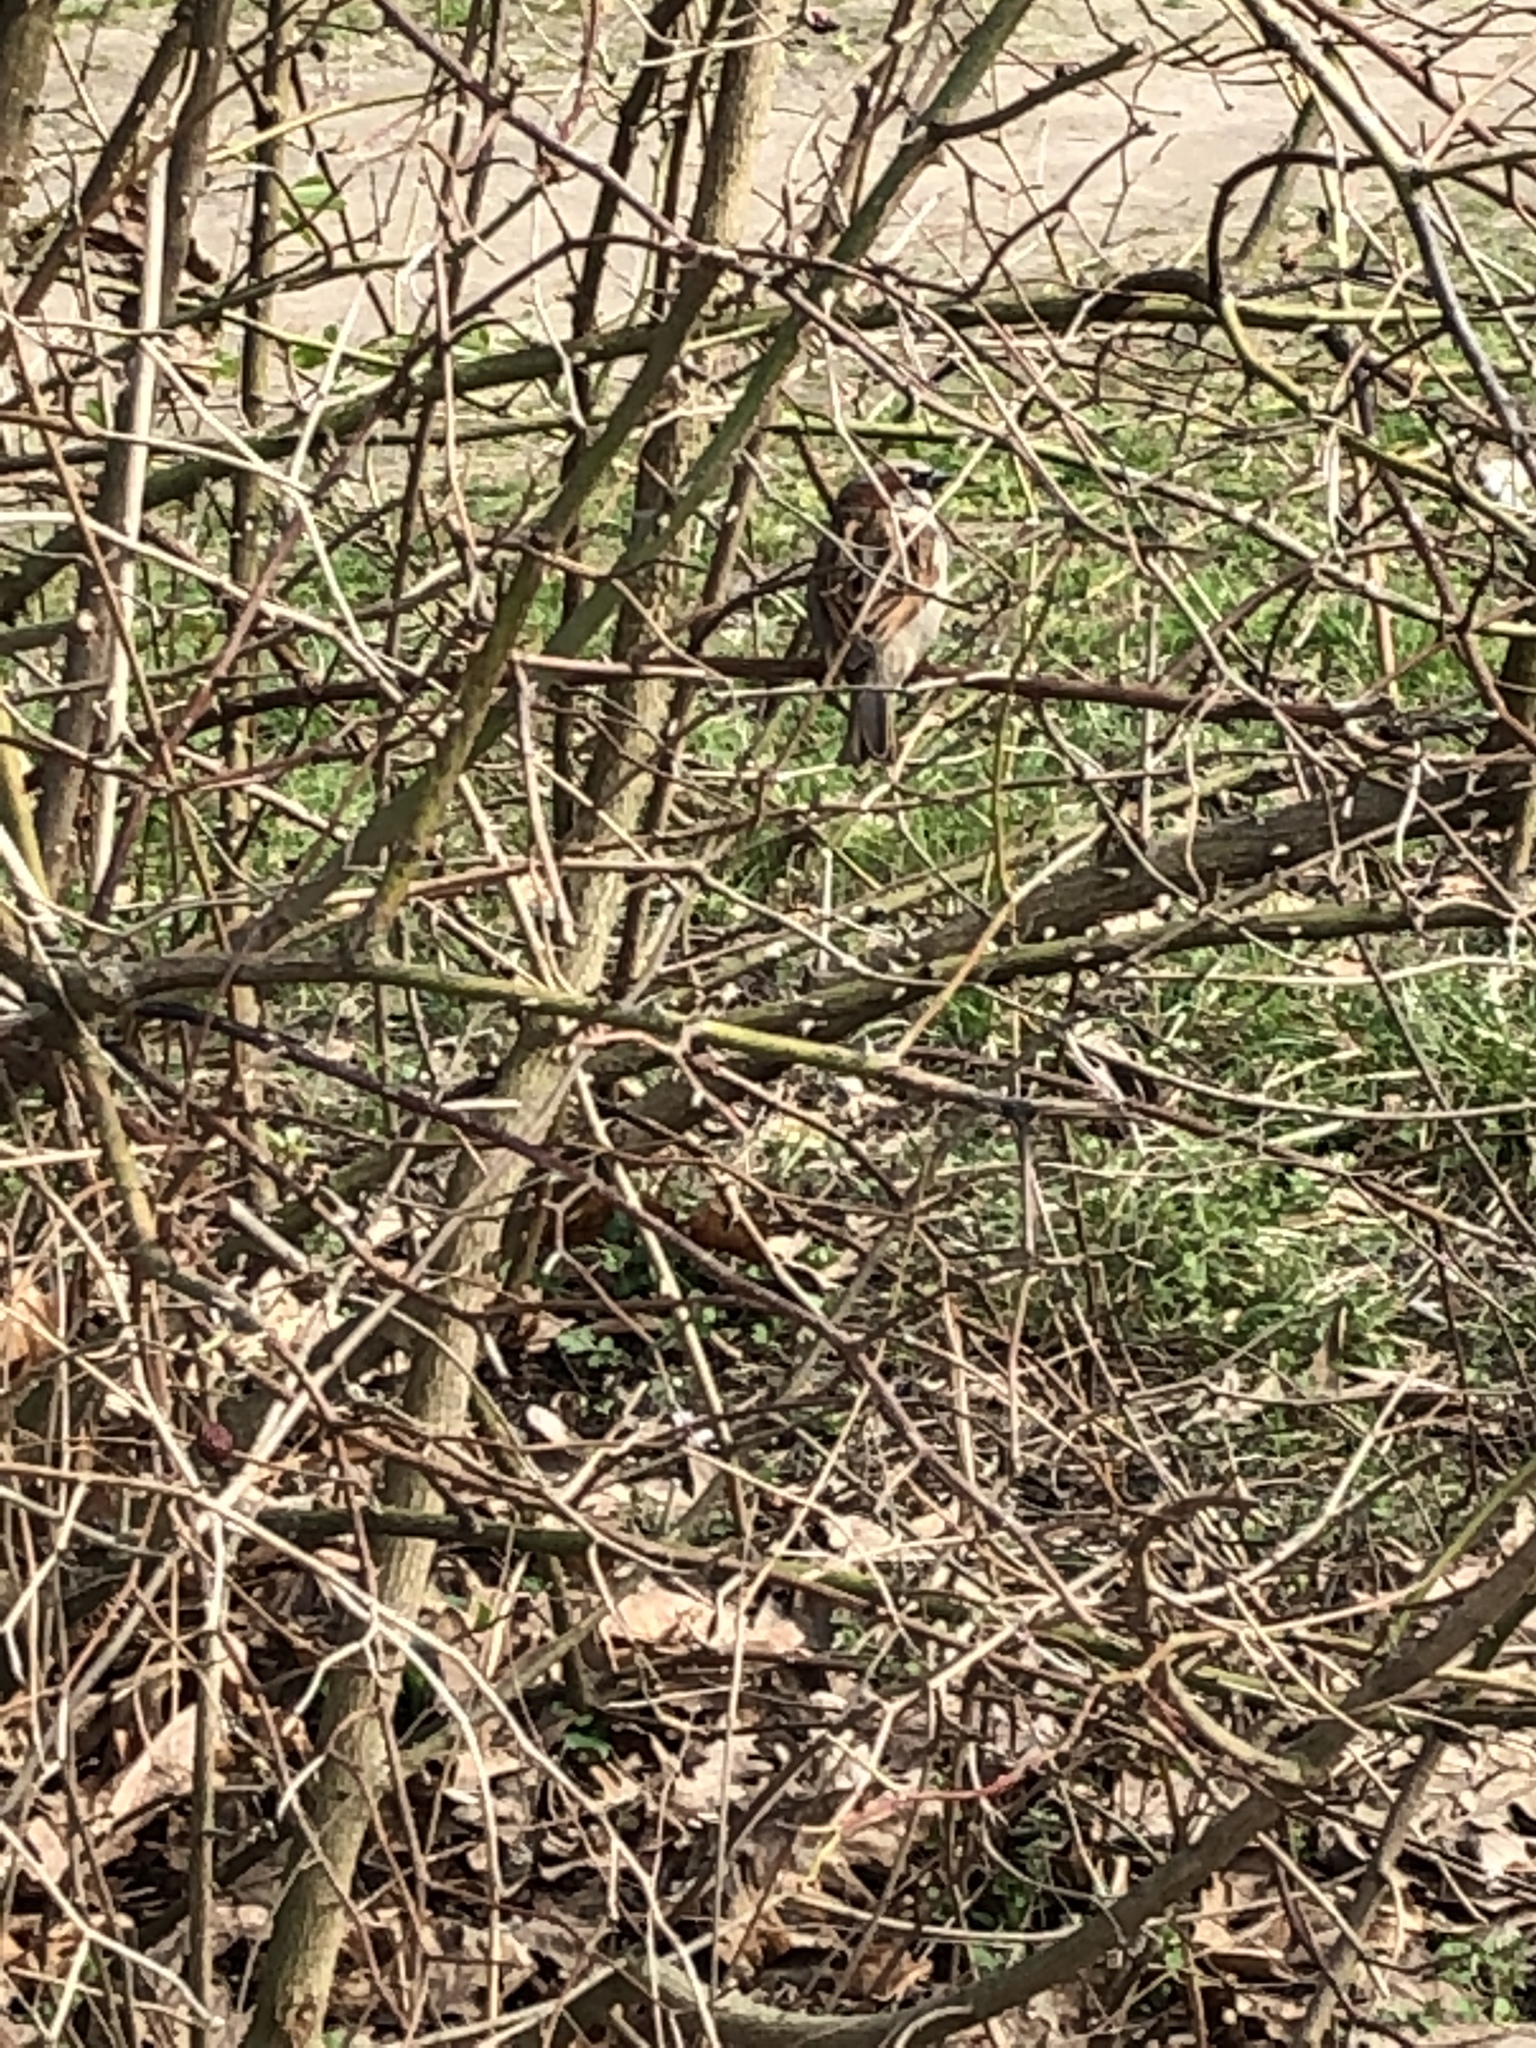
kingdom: Animalia
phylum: Chordata
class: Aves
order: Passeriformes
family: Passeridae
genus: Passer
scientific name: Passer domesticus
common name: House sparrow
